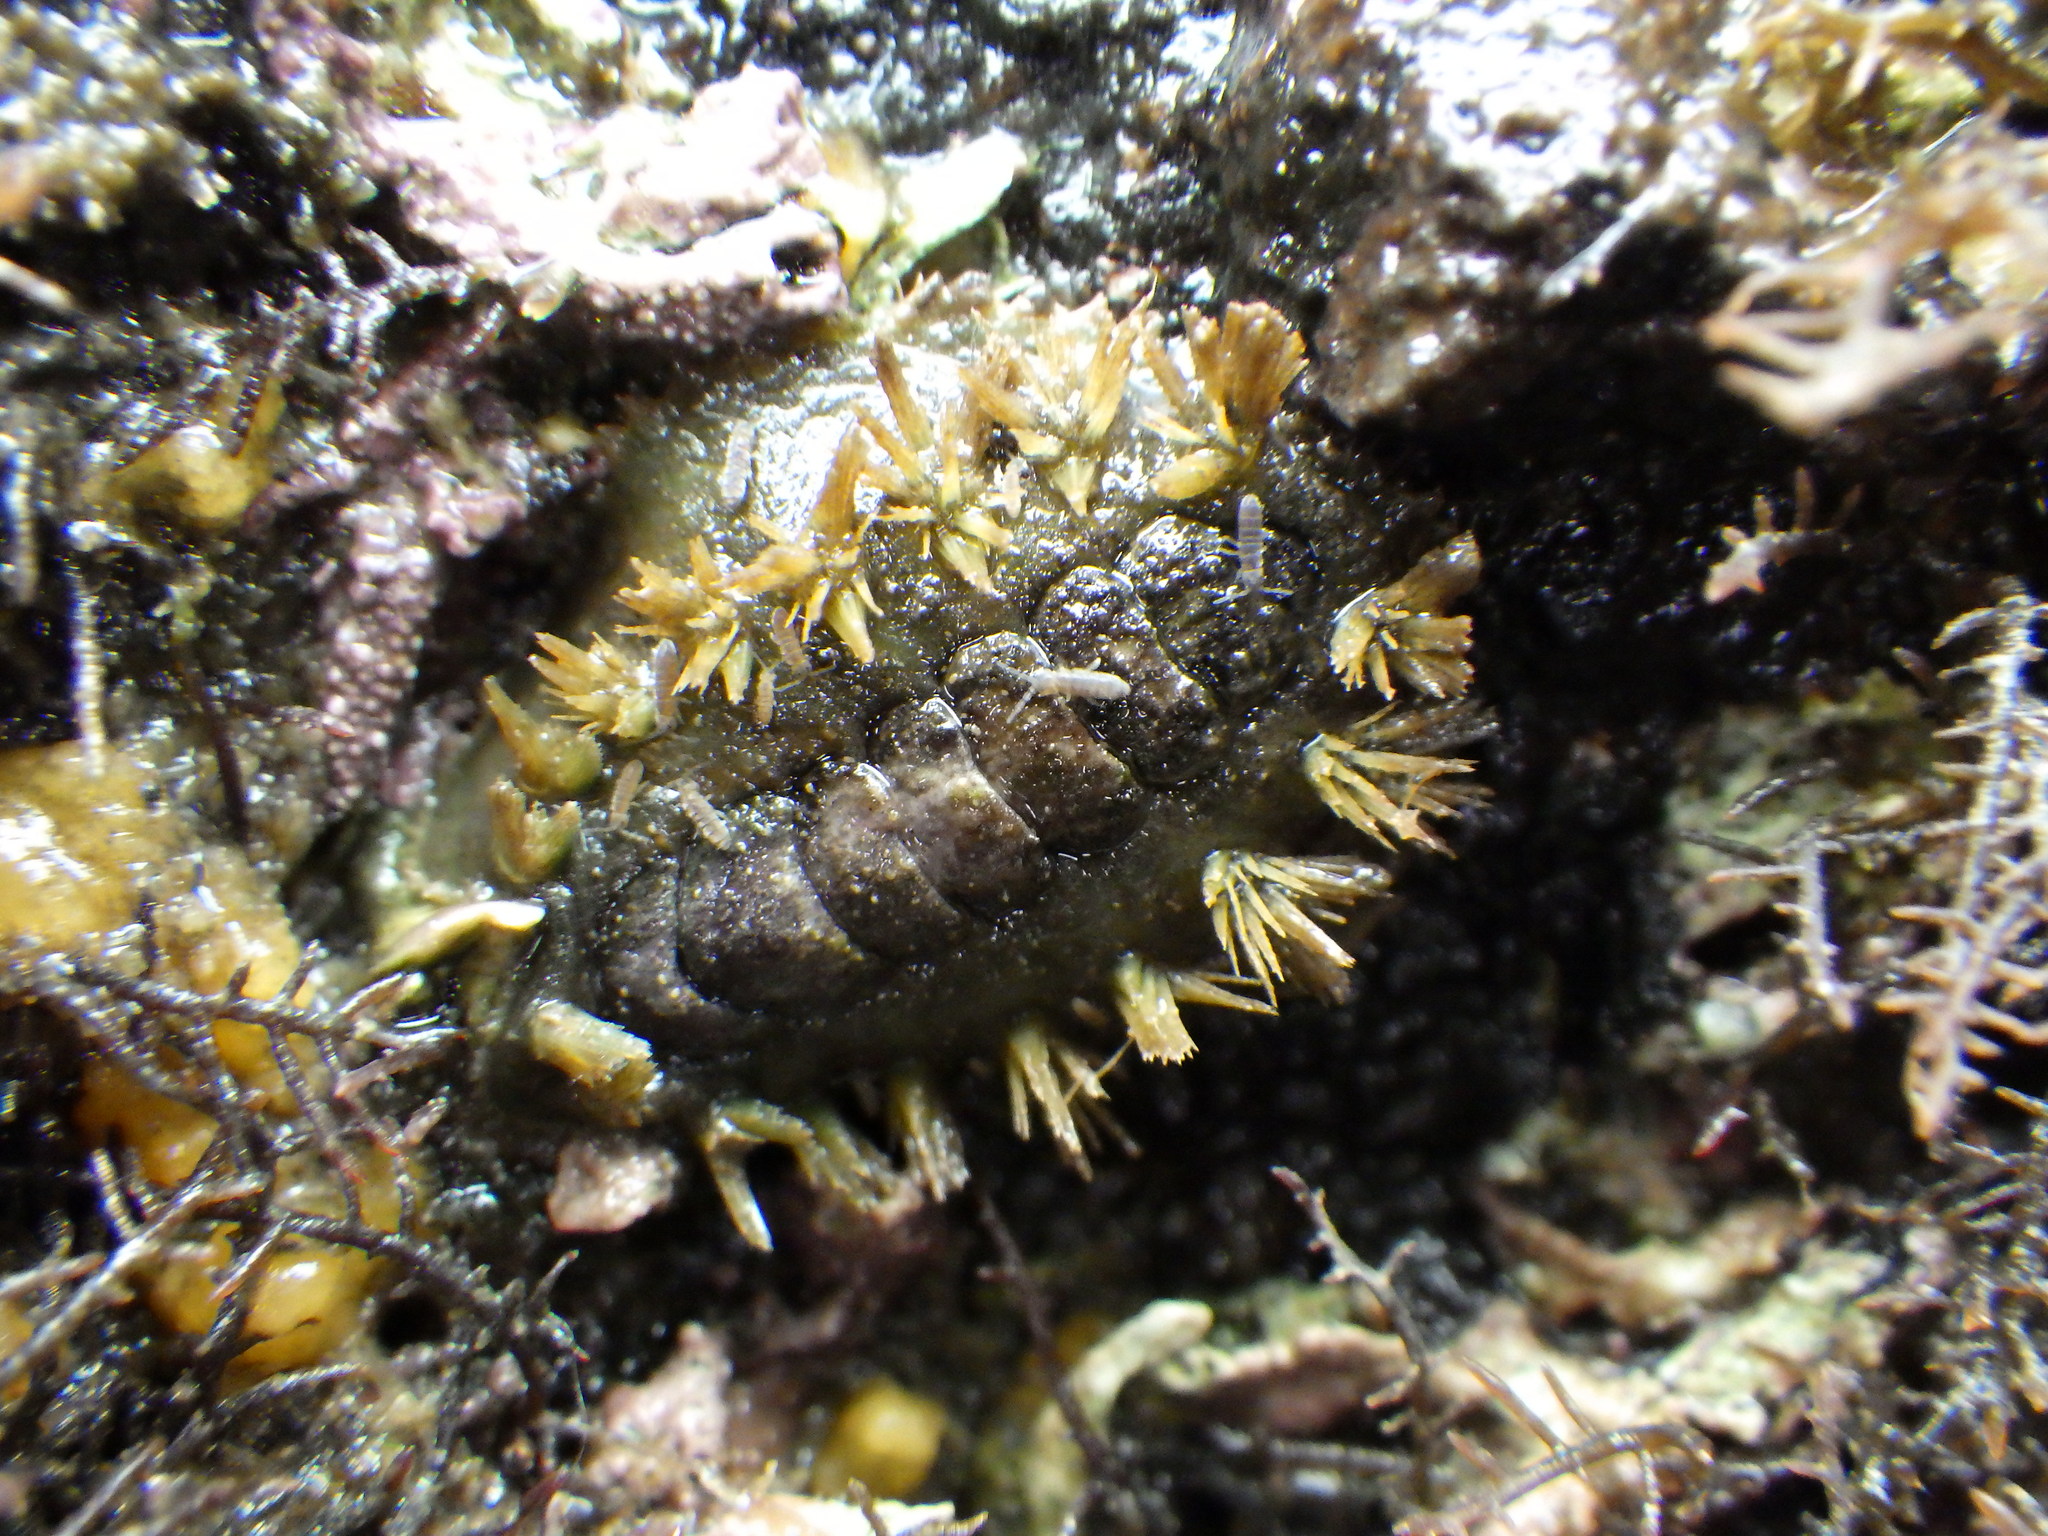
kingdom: Animalia
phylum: Mollusca
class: Polyplacophora
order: Chitonida
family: Acanthochitonidae
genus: Acanthochitona
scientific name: Acanthochitona zelandica
